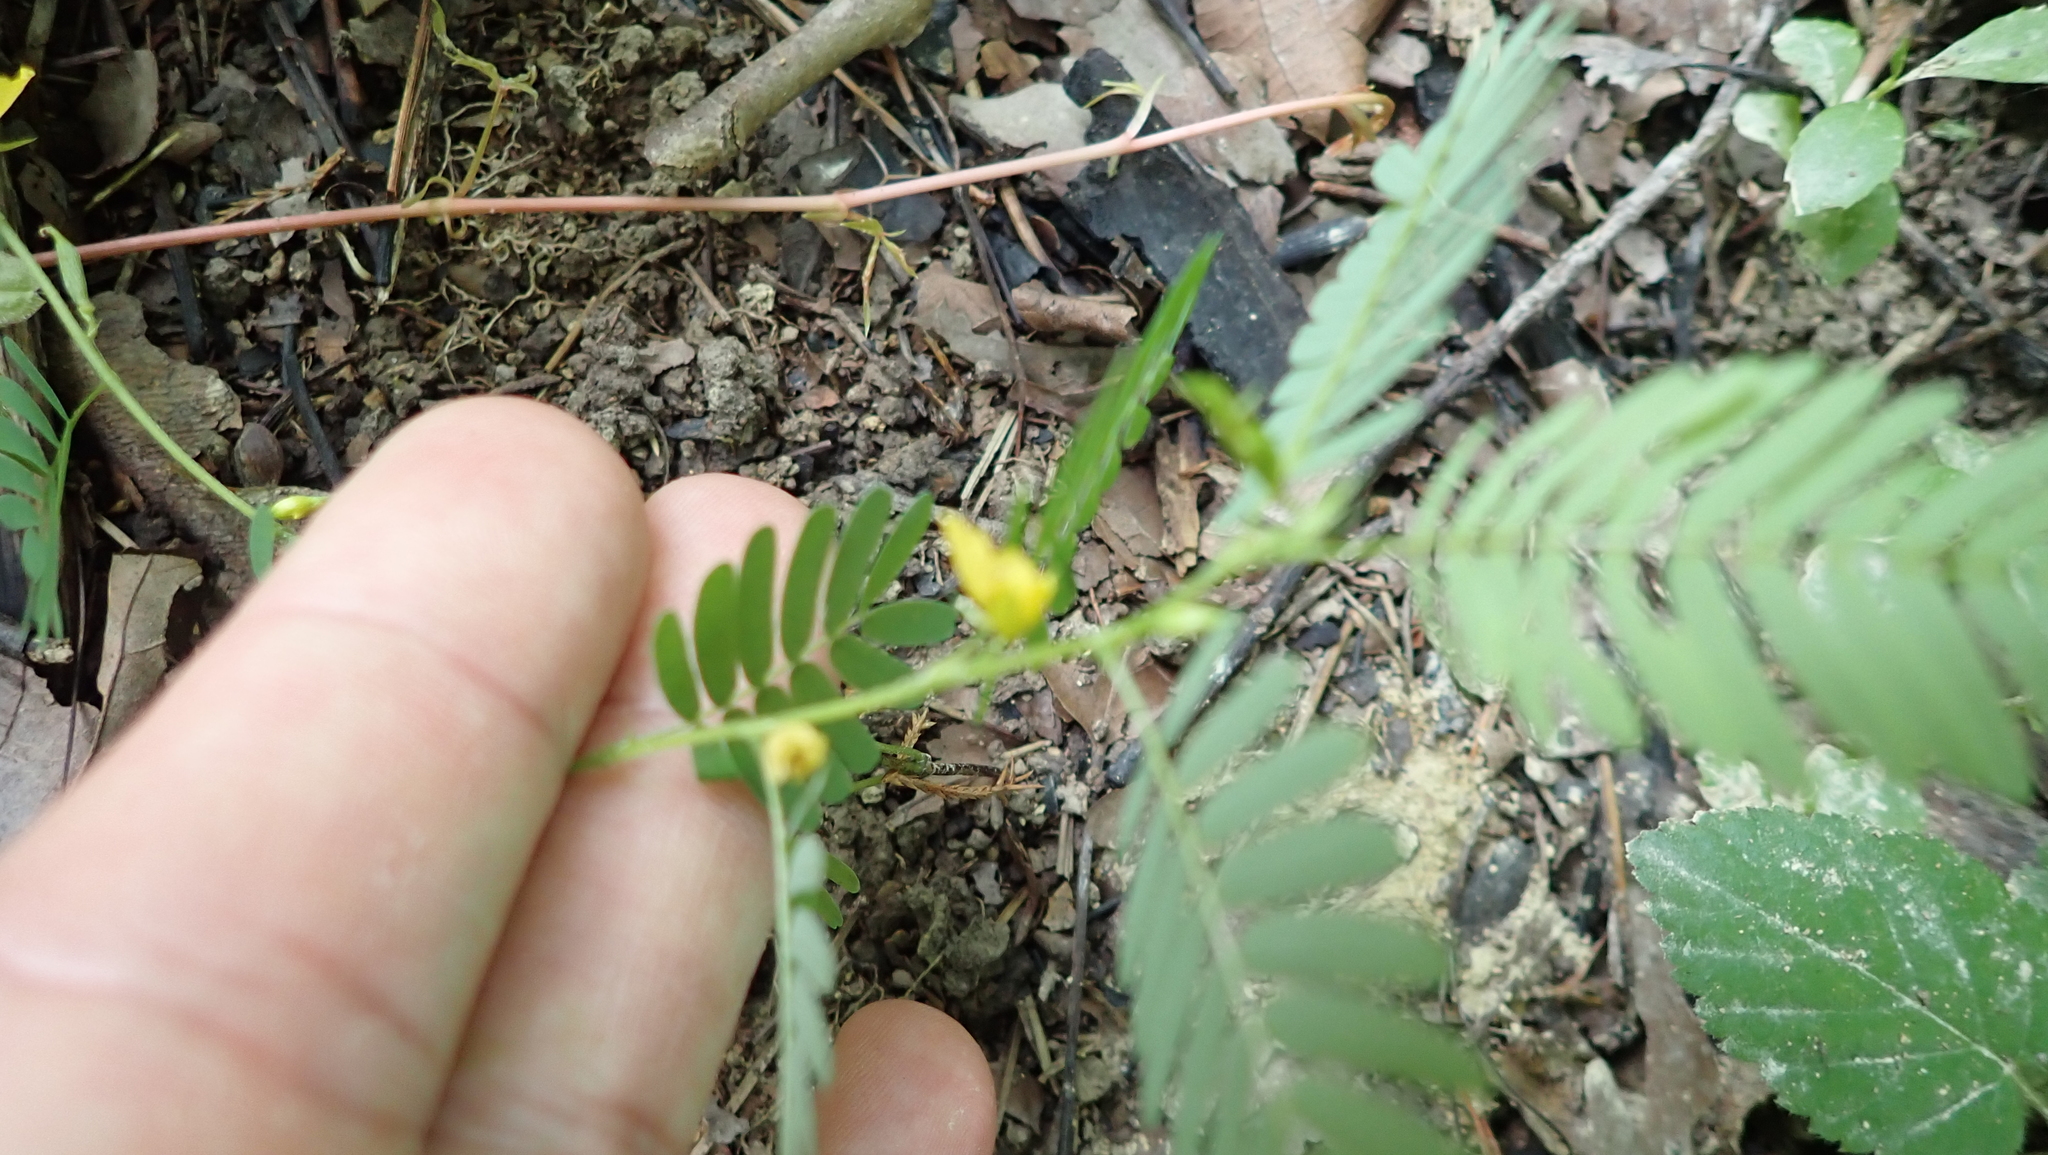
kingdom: Plantae
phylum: Tracheophyta
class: Magnoliopsida
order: Fabales
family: Fabaceae
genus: Chamaecrista
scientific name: Chamaecrista nictitans
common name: Sensitive cassia
